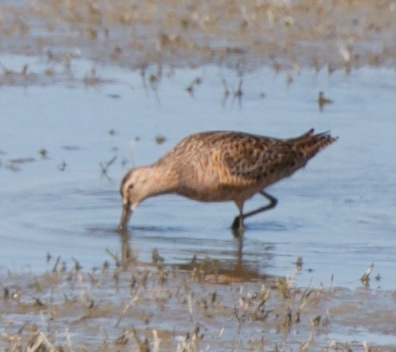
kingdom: Animalia
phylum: Chordata
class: Aves
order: Charadriiformes
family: Scolopacidae
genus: Limnodromus
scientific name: Limnodromus scolopaceus
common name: Long-billed dowitcher
